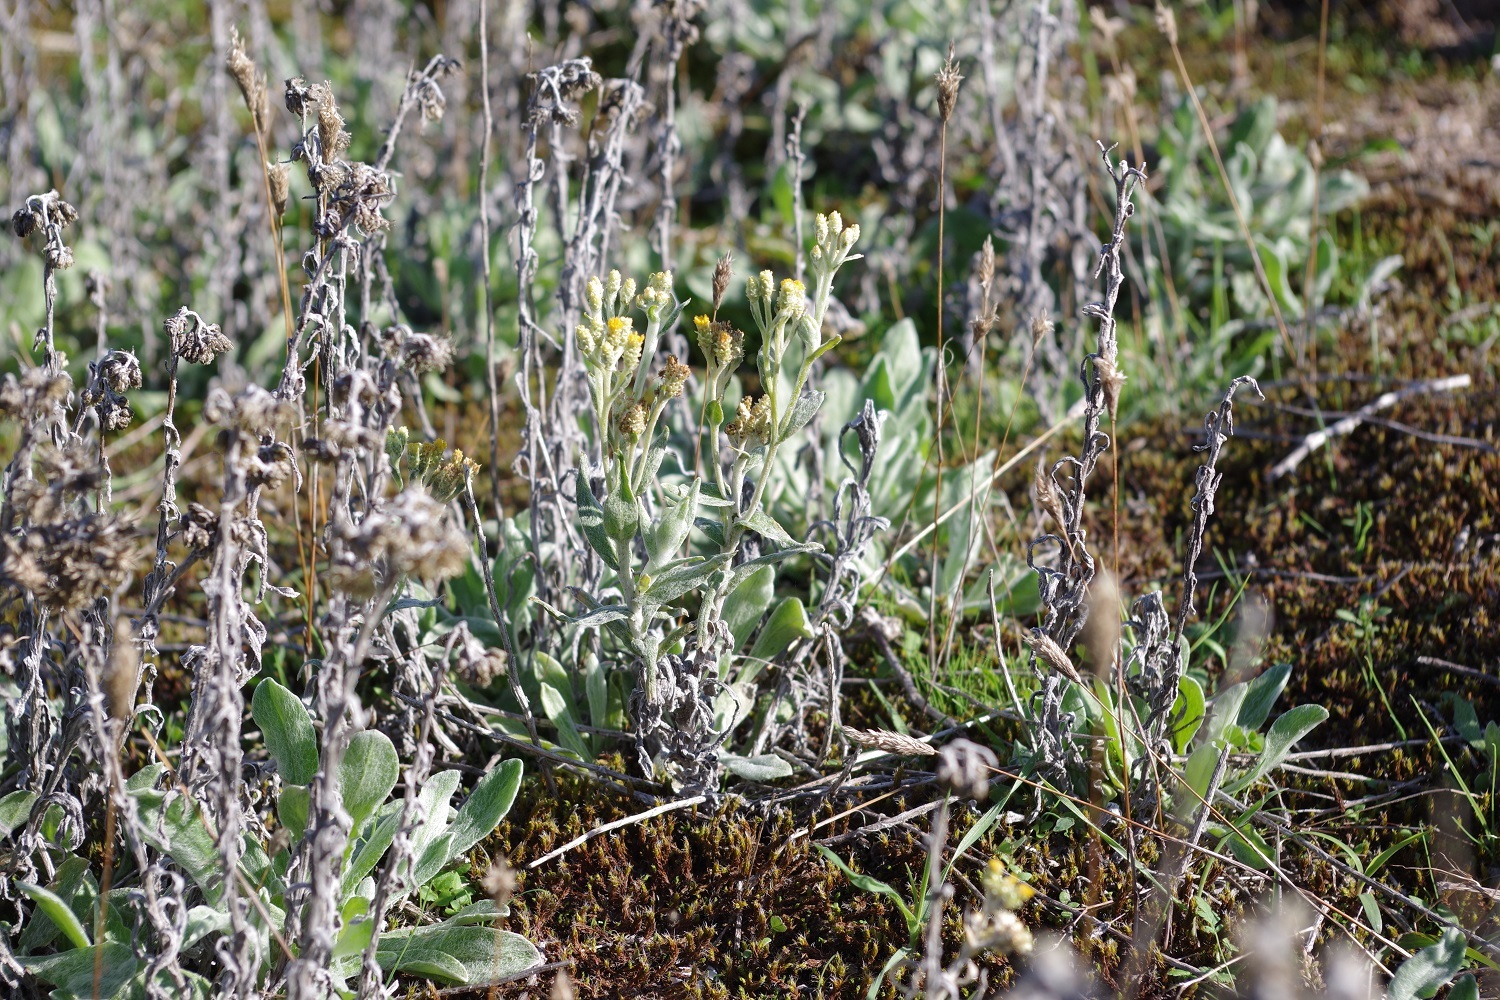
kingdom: Plantae
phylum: Tracheophyta
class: Magnoliopsida
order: Asterales
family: Asteraceae
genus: Helichrysum
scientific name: Helichrysum arenarium
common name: Strawflower
